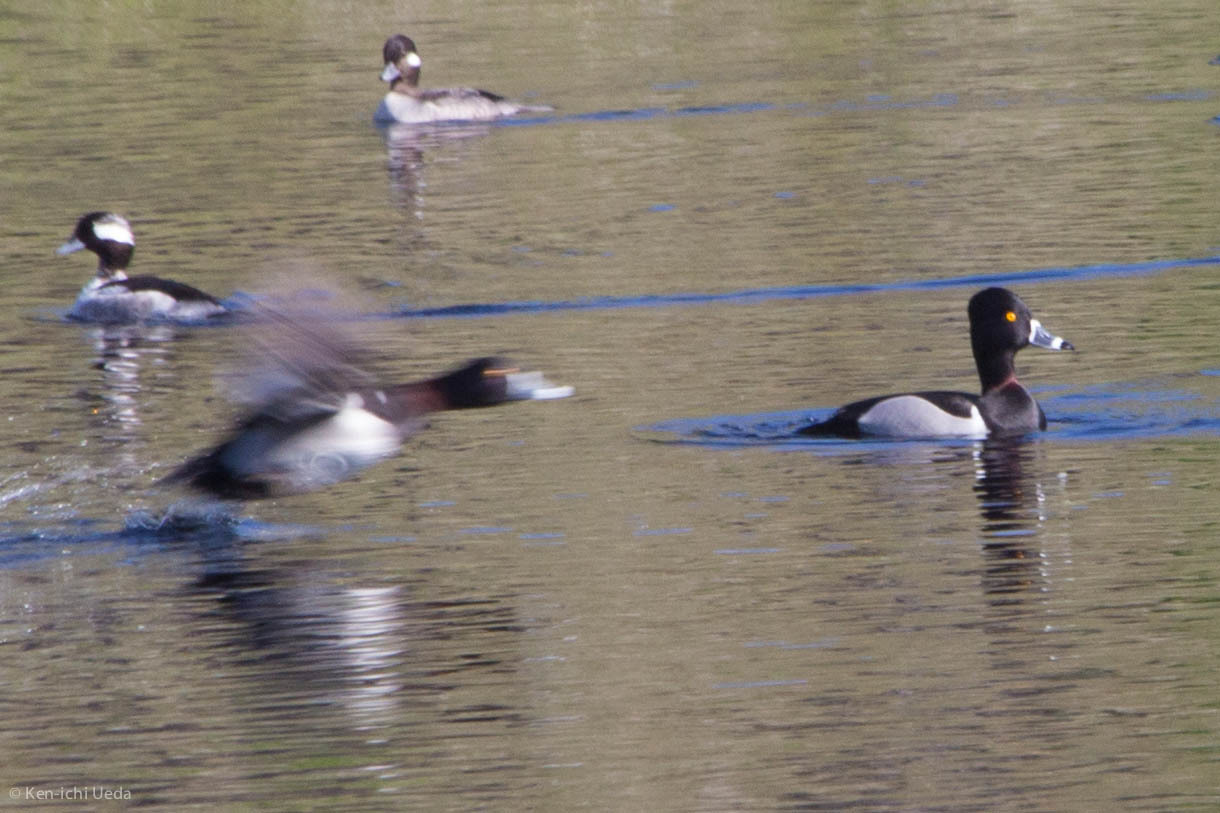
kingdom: Animalia
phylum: Chordata
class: Aves
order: Anseriformes
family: Anatidae
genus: Aythya
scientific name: Aythya collaris
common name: Ring-necked duck
